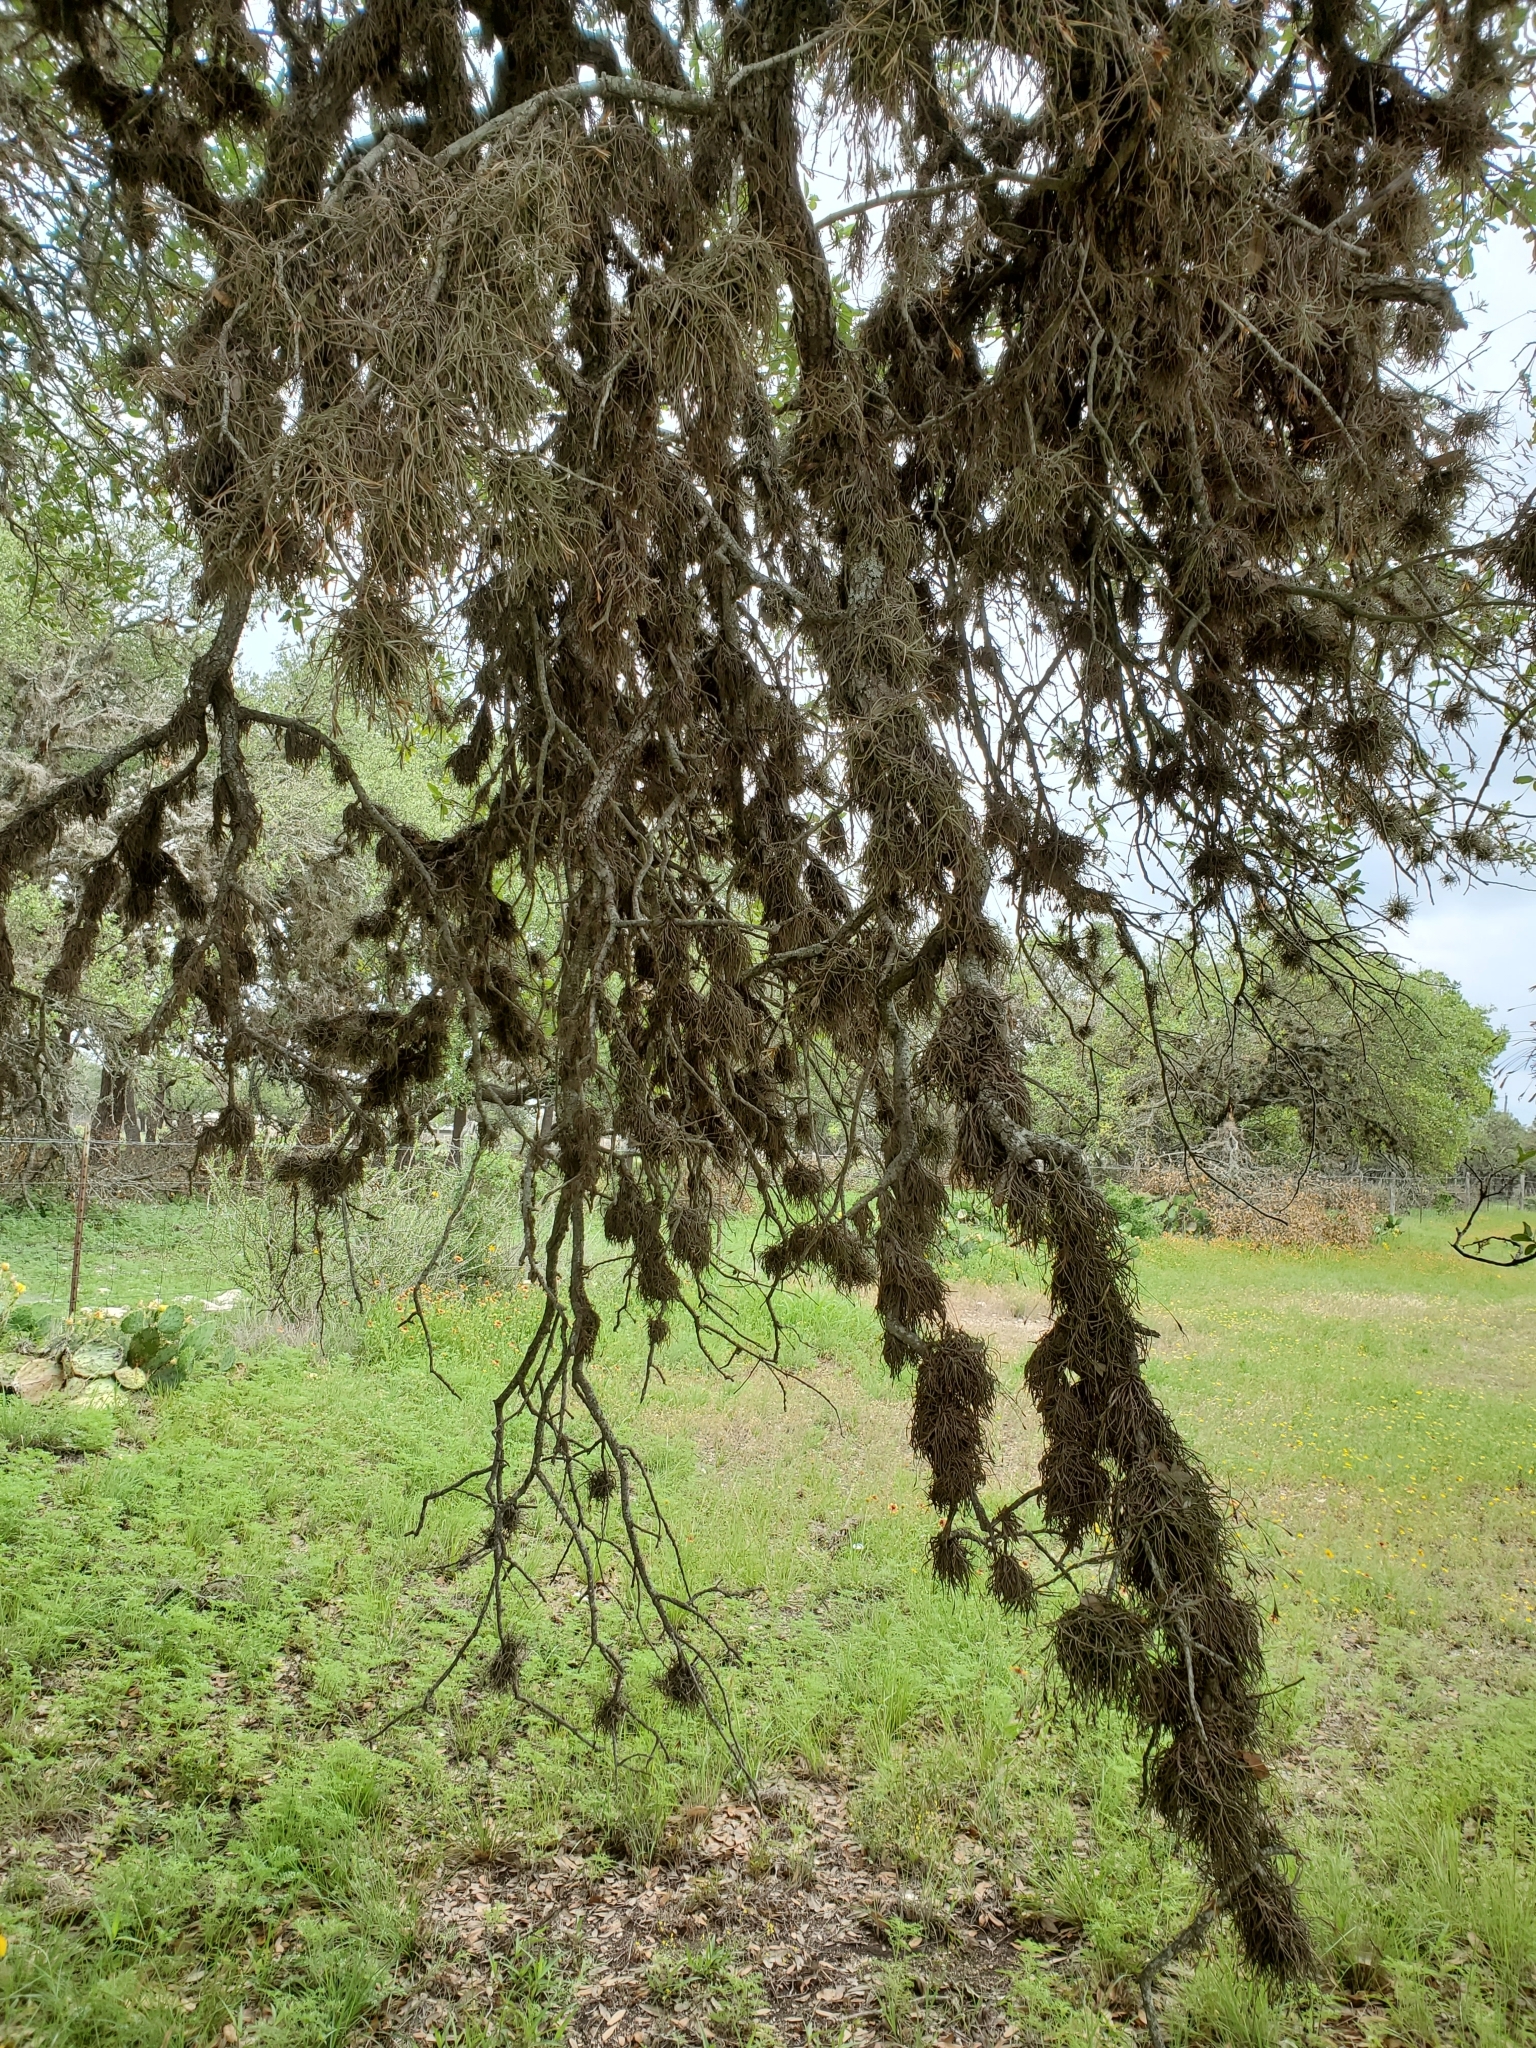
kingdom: Plantae
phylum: Tracheophyta
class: Liliopsida
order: Poales
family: Bromeliaceae
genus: Tillandsia
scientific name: Tillandsia recurvata
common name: Small ballmoss
